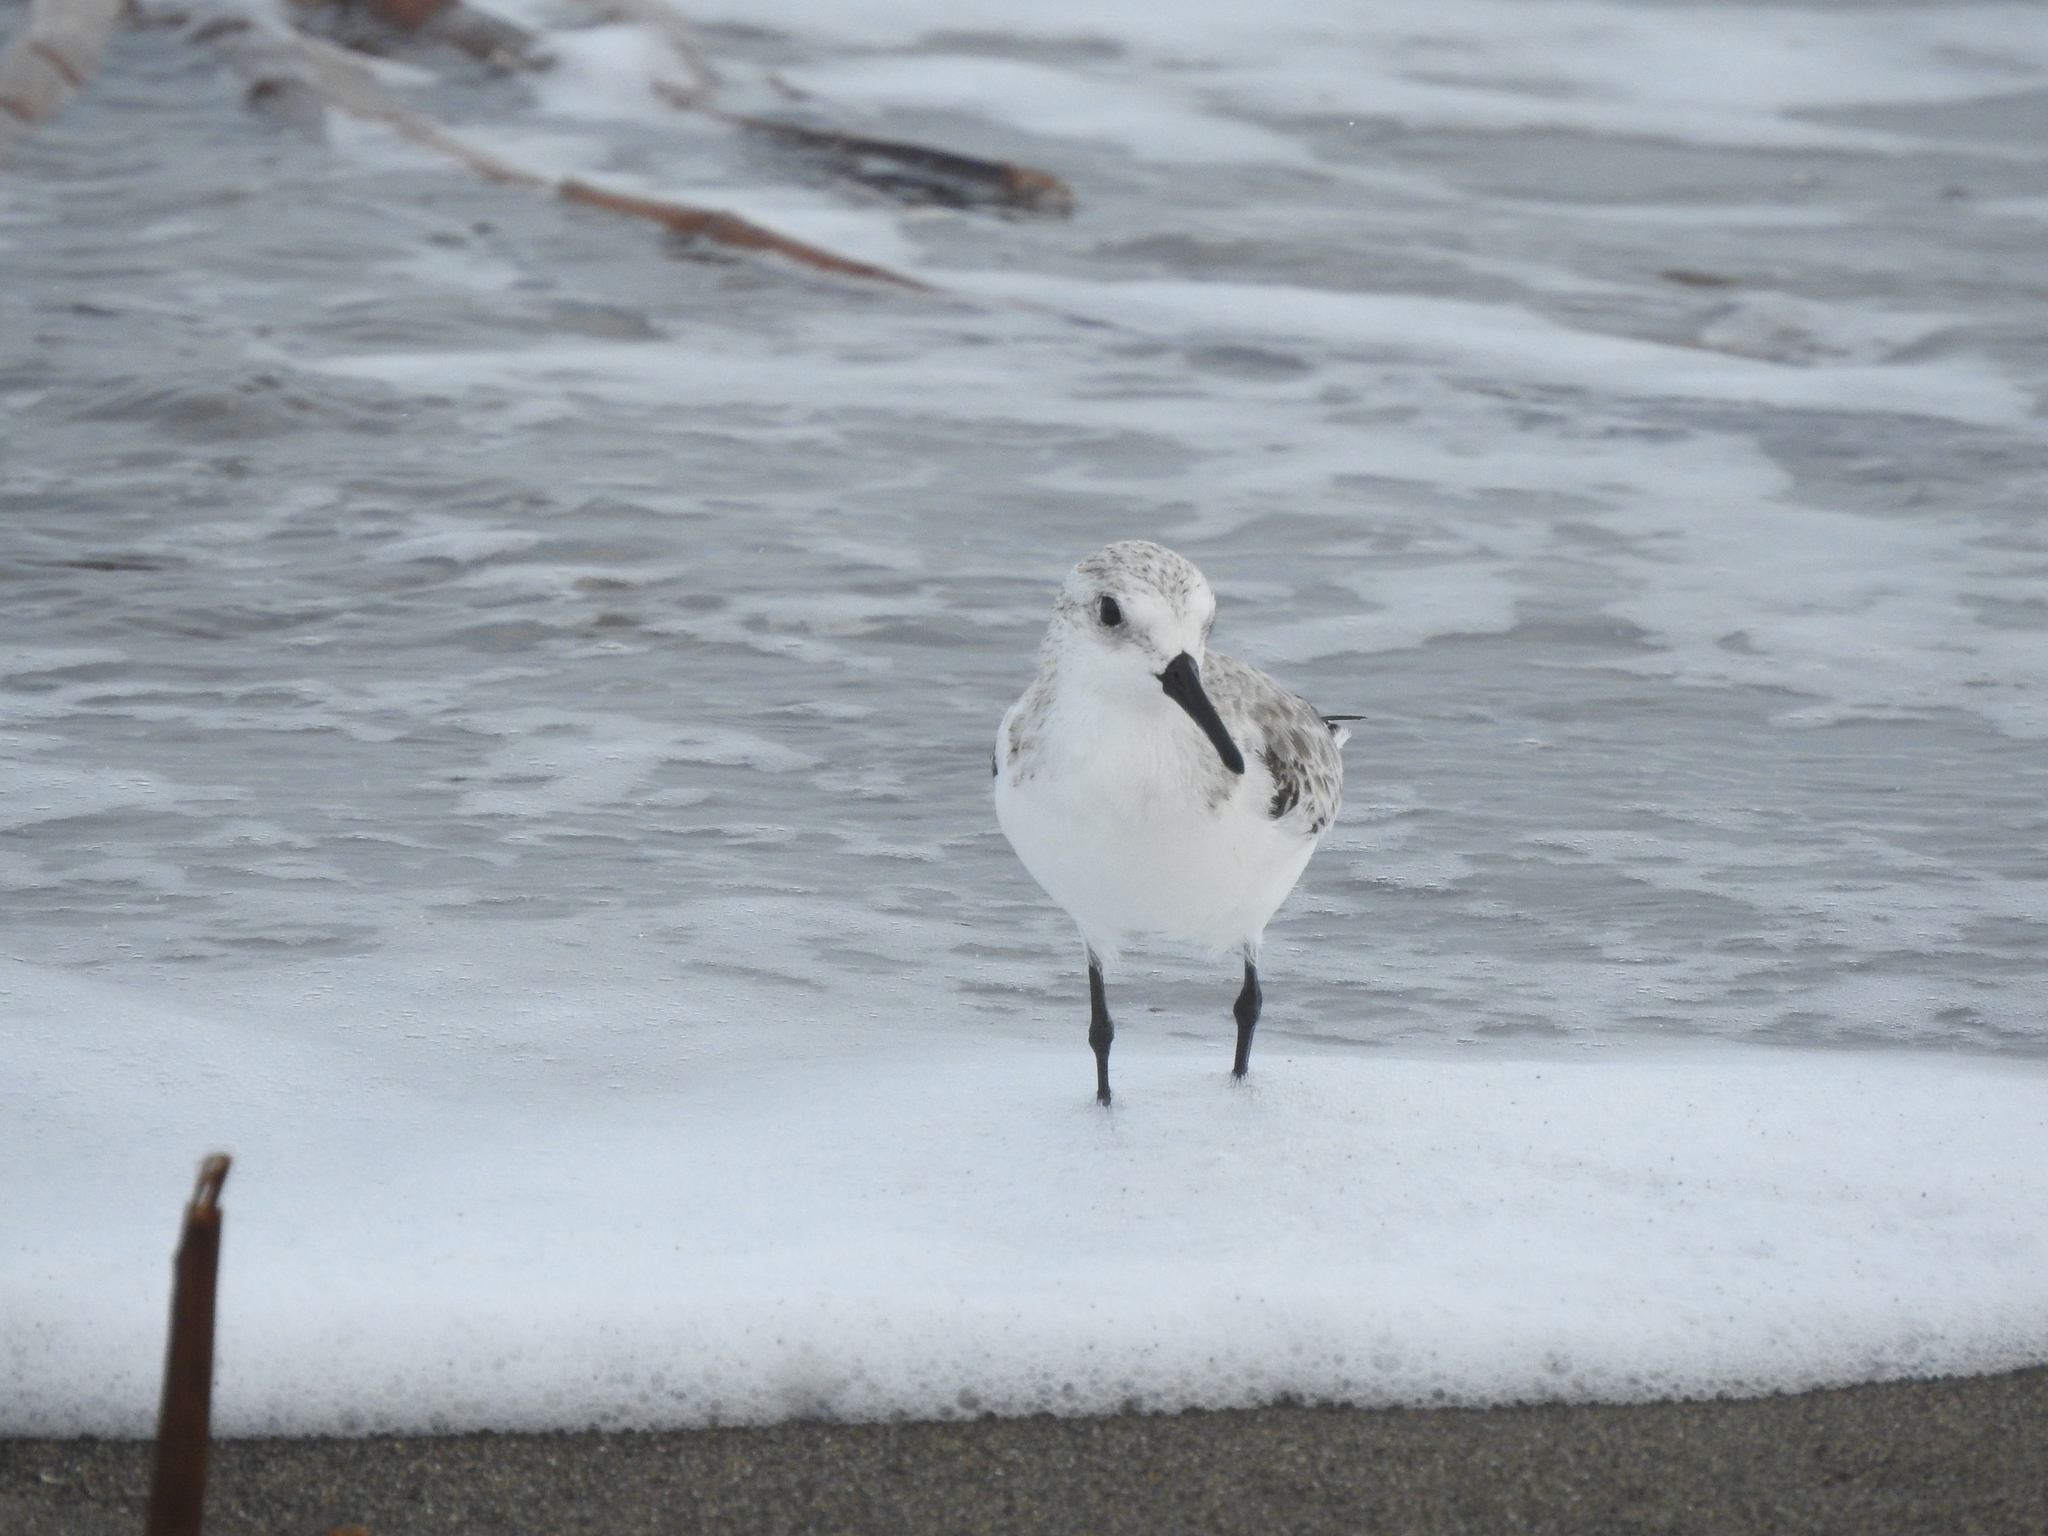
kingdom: Animalia
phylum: Chordata
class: Aves
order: Charadriiformes
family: Scolopacidae
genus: Calidris
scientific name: Calidris alba
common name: Sanderling
